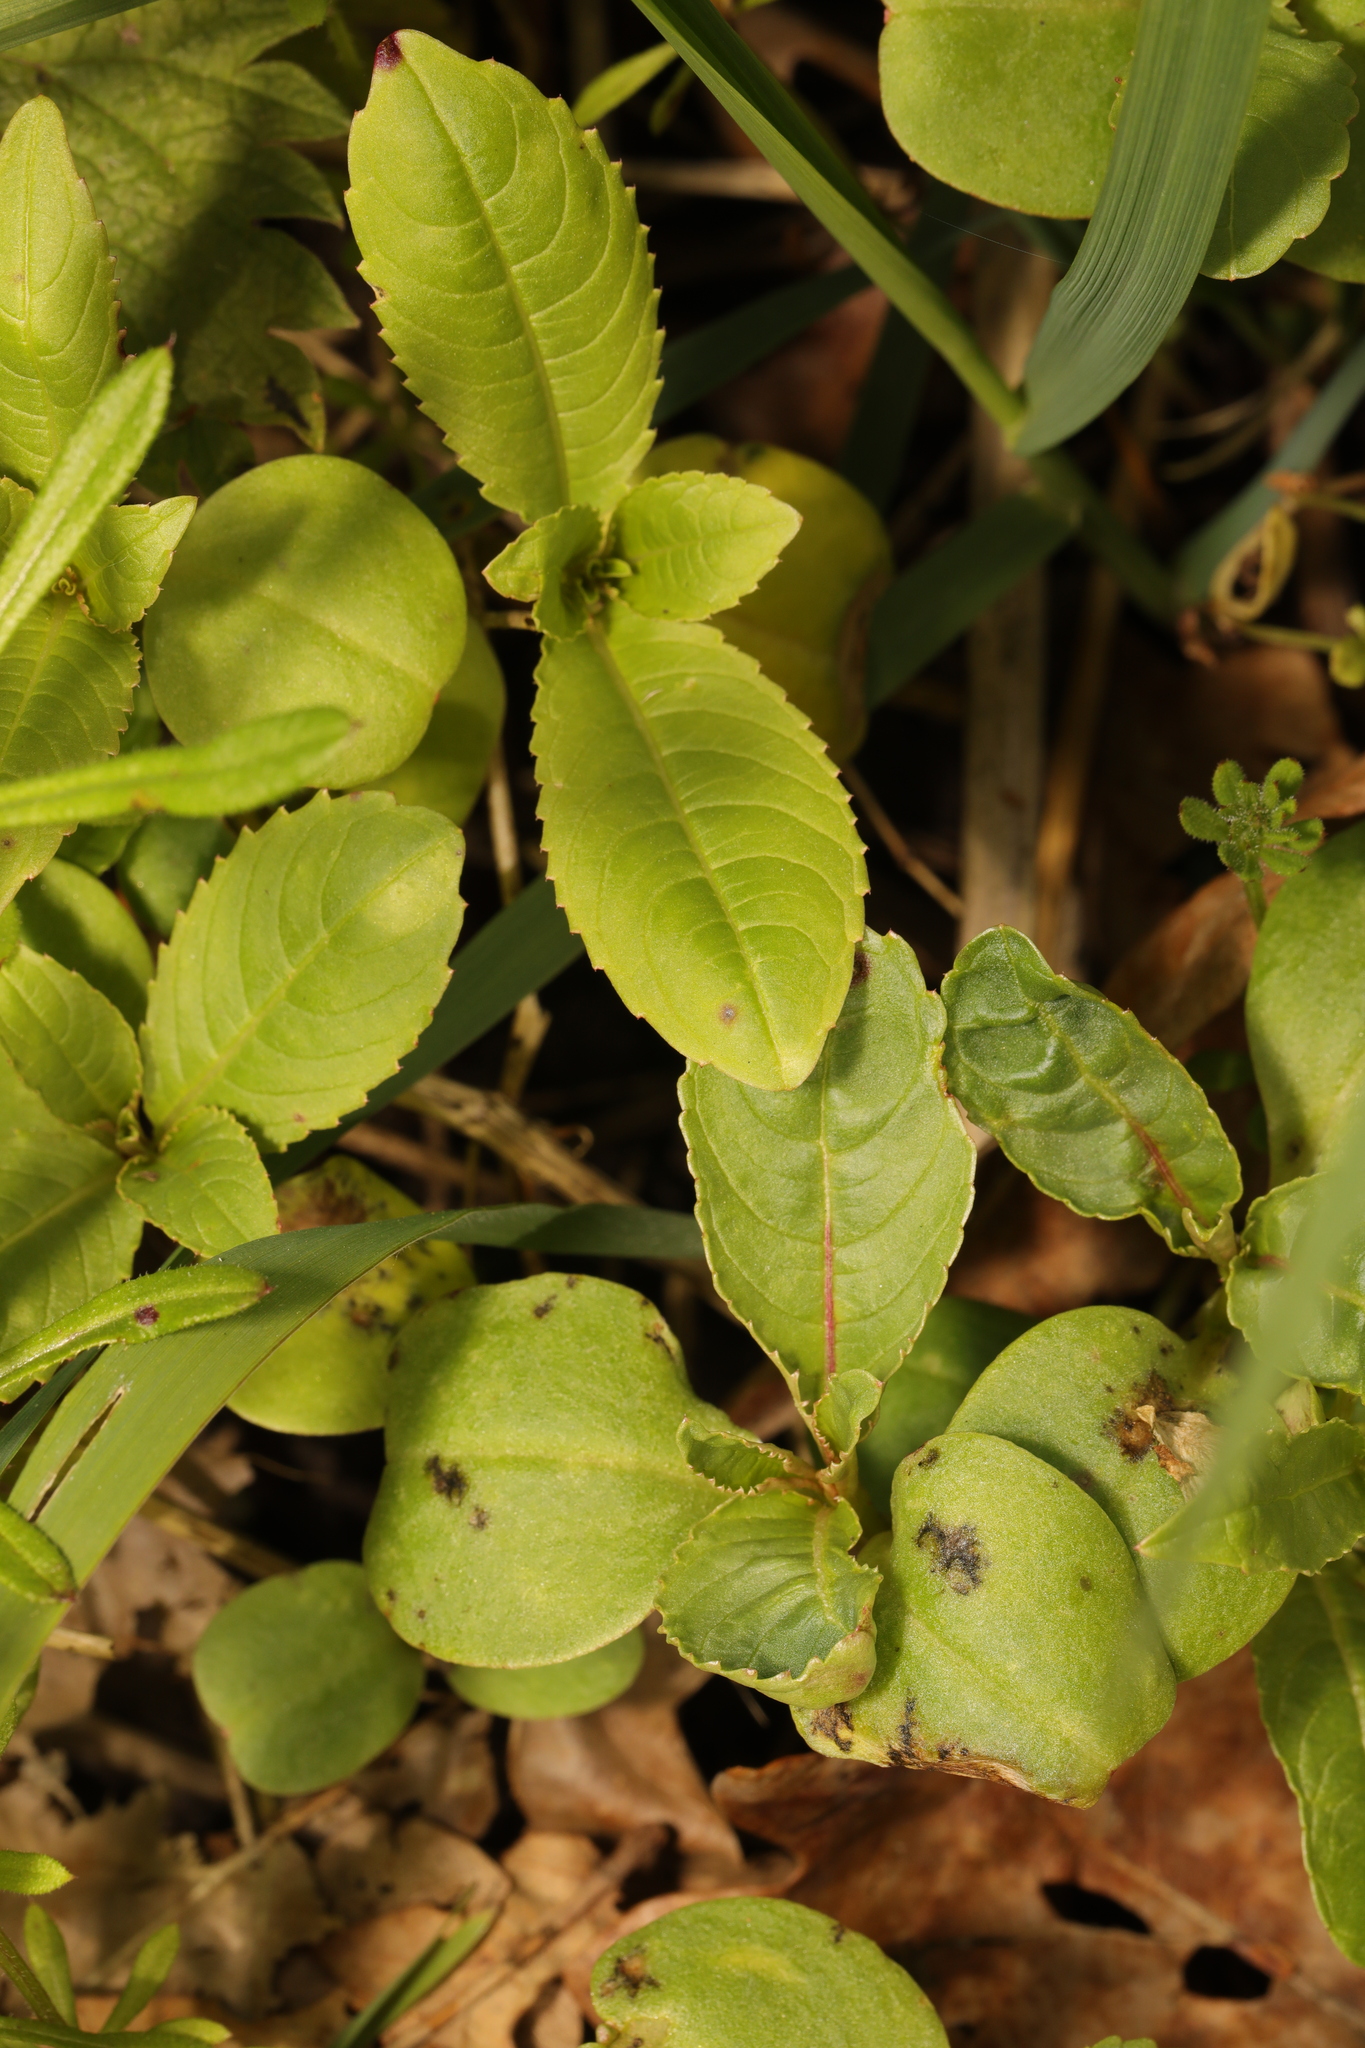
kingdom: Plantae
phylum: Tracheophyta
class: Magnoliopsida
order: Ericales
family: Balsaminaceae
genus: Impatiens
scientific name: Impatiens glandulifera
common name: Himalayan balsam
